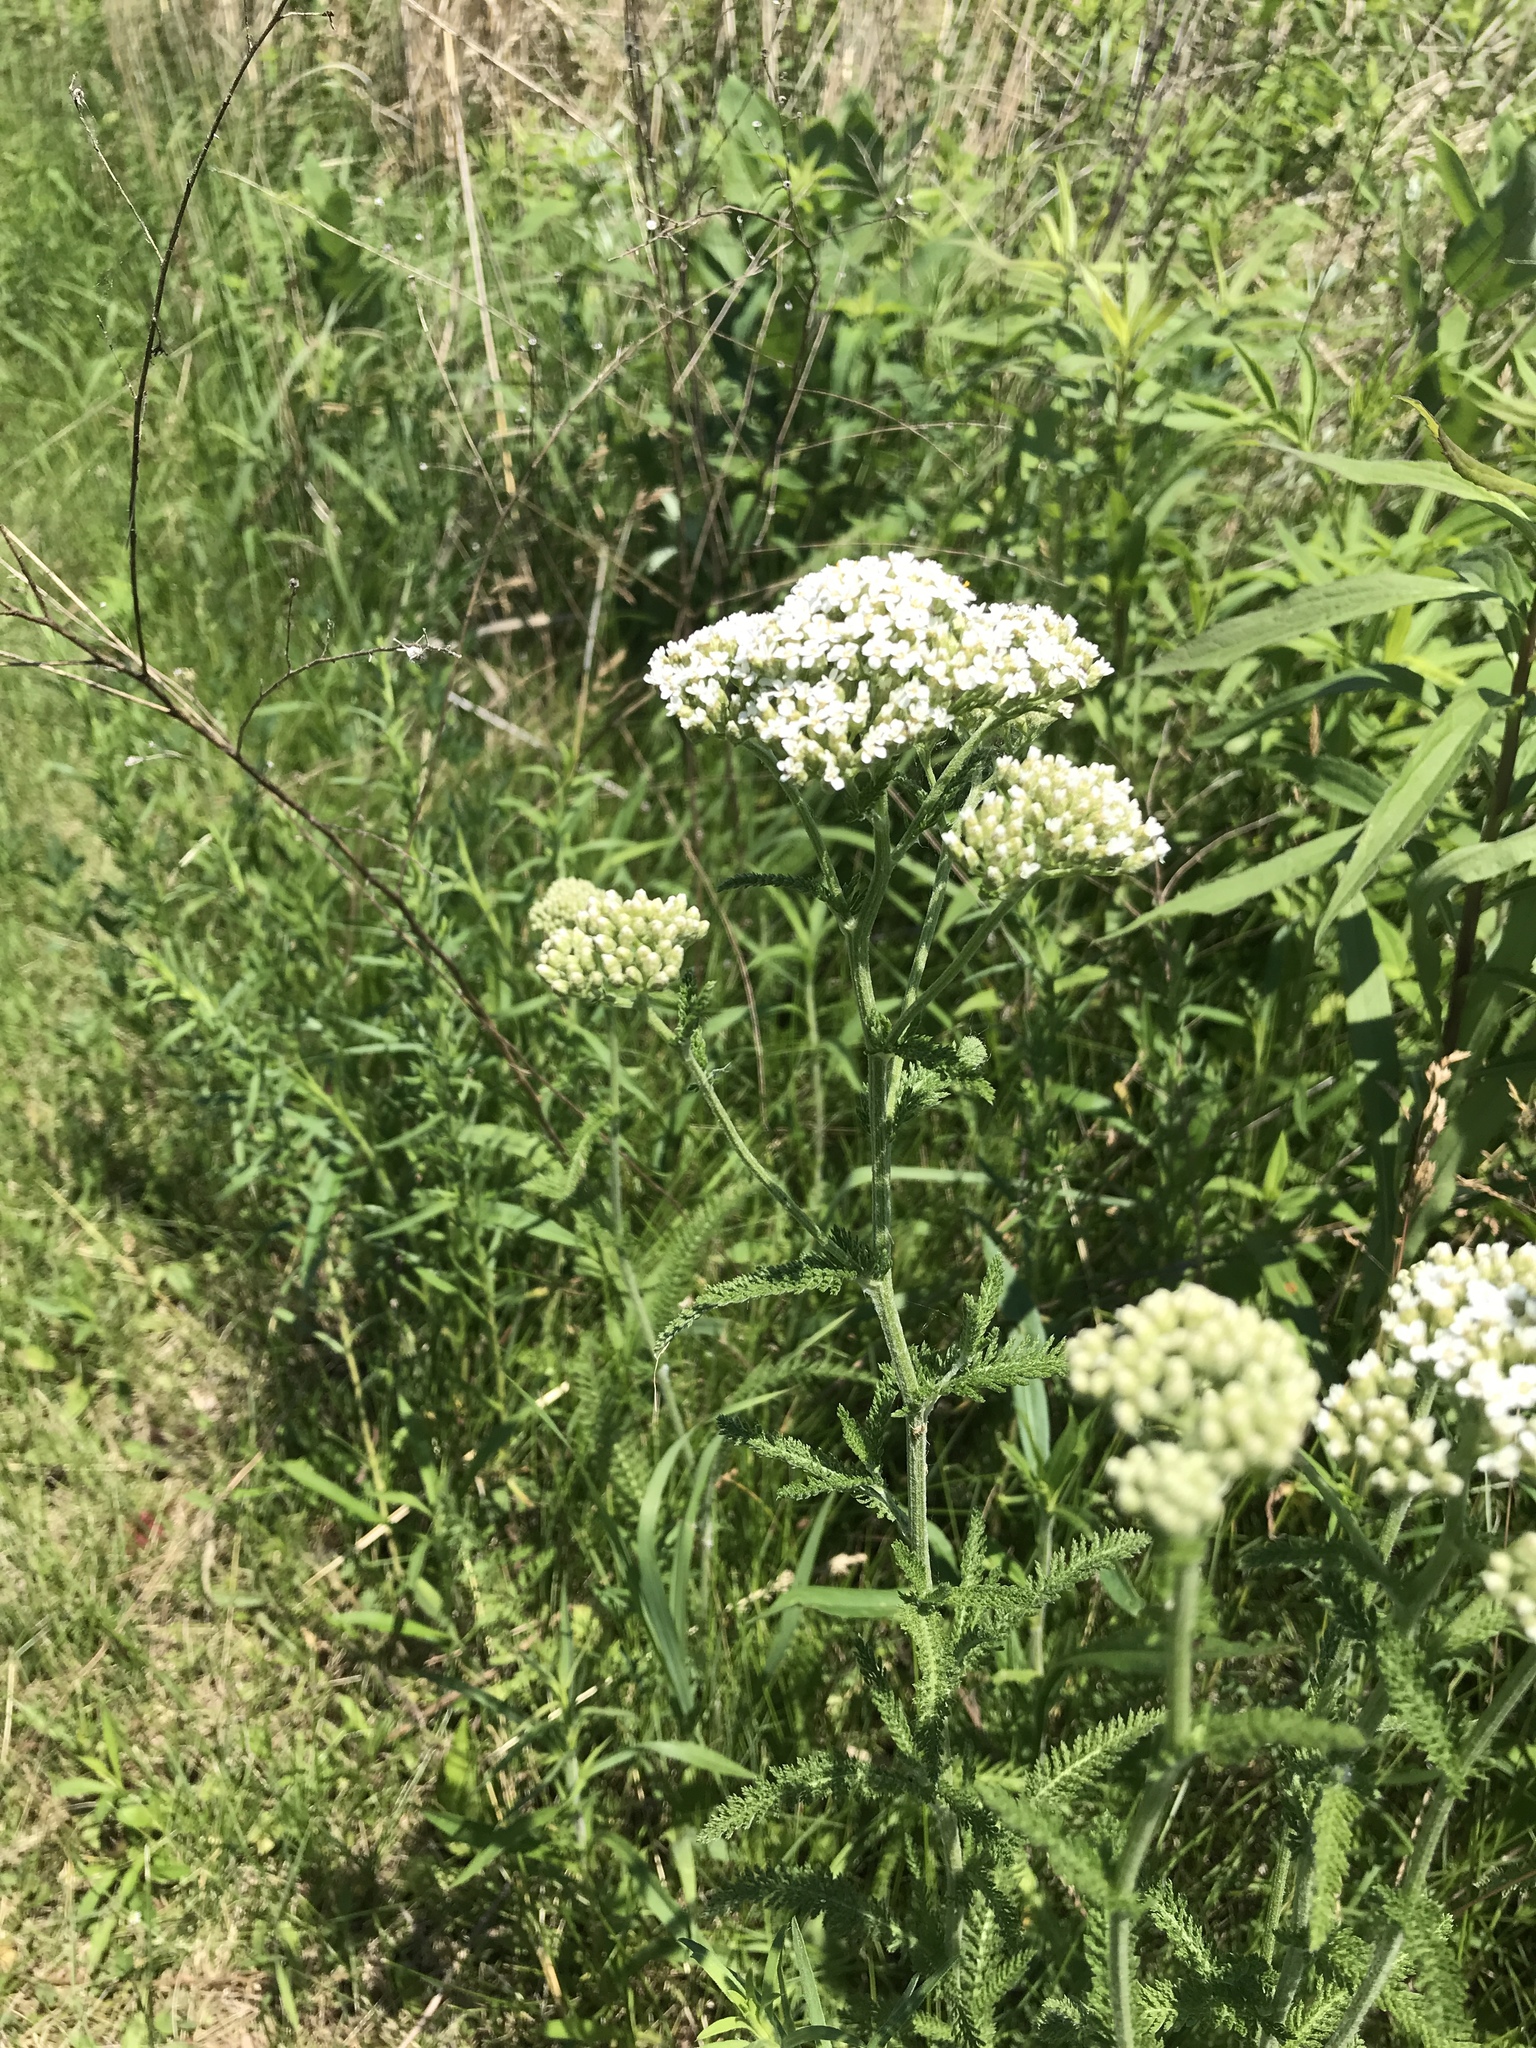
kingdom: Plantae
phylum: Tracheophyta
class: Magnoliopsida
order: Asterales
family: Asteraceae
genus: Achillea
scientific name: Achillea millefolium
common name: Yarrow
